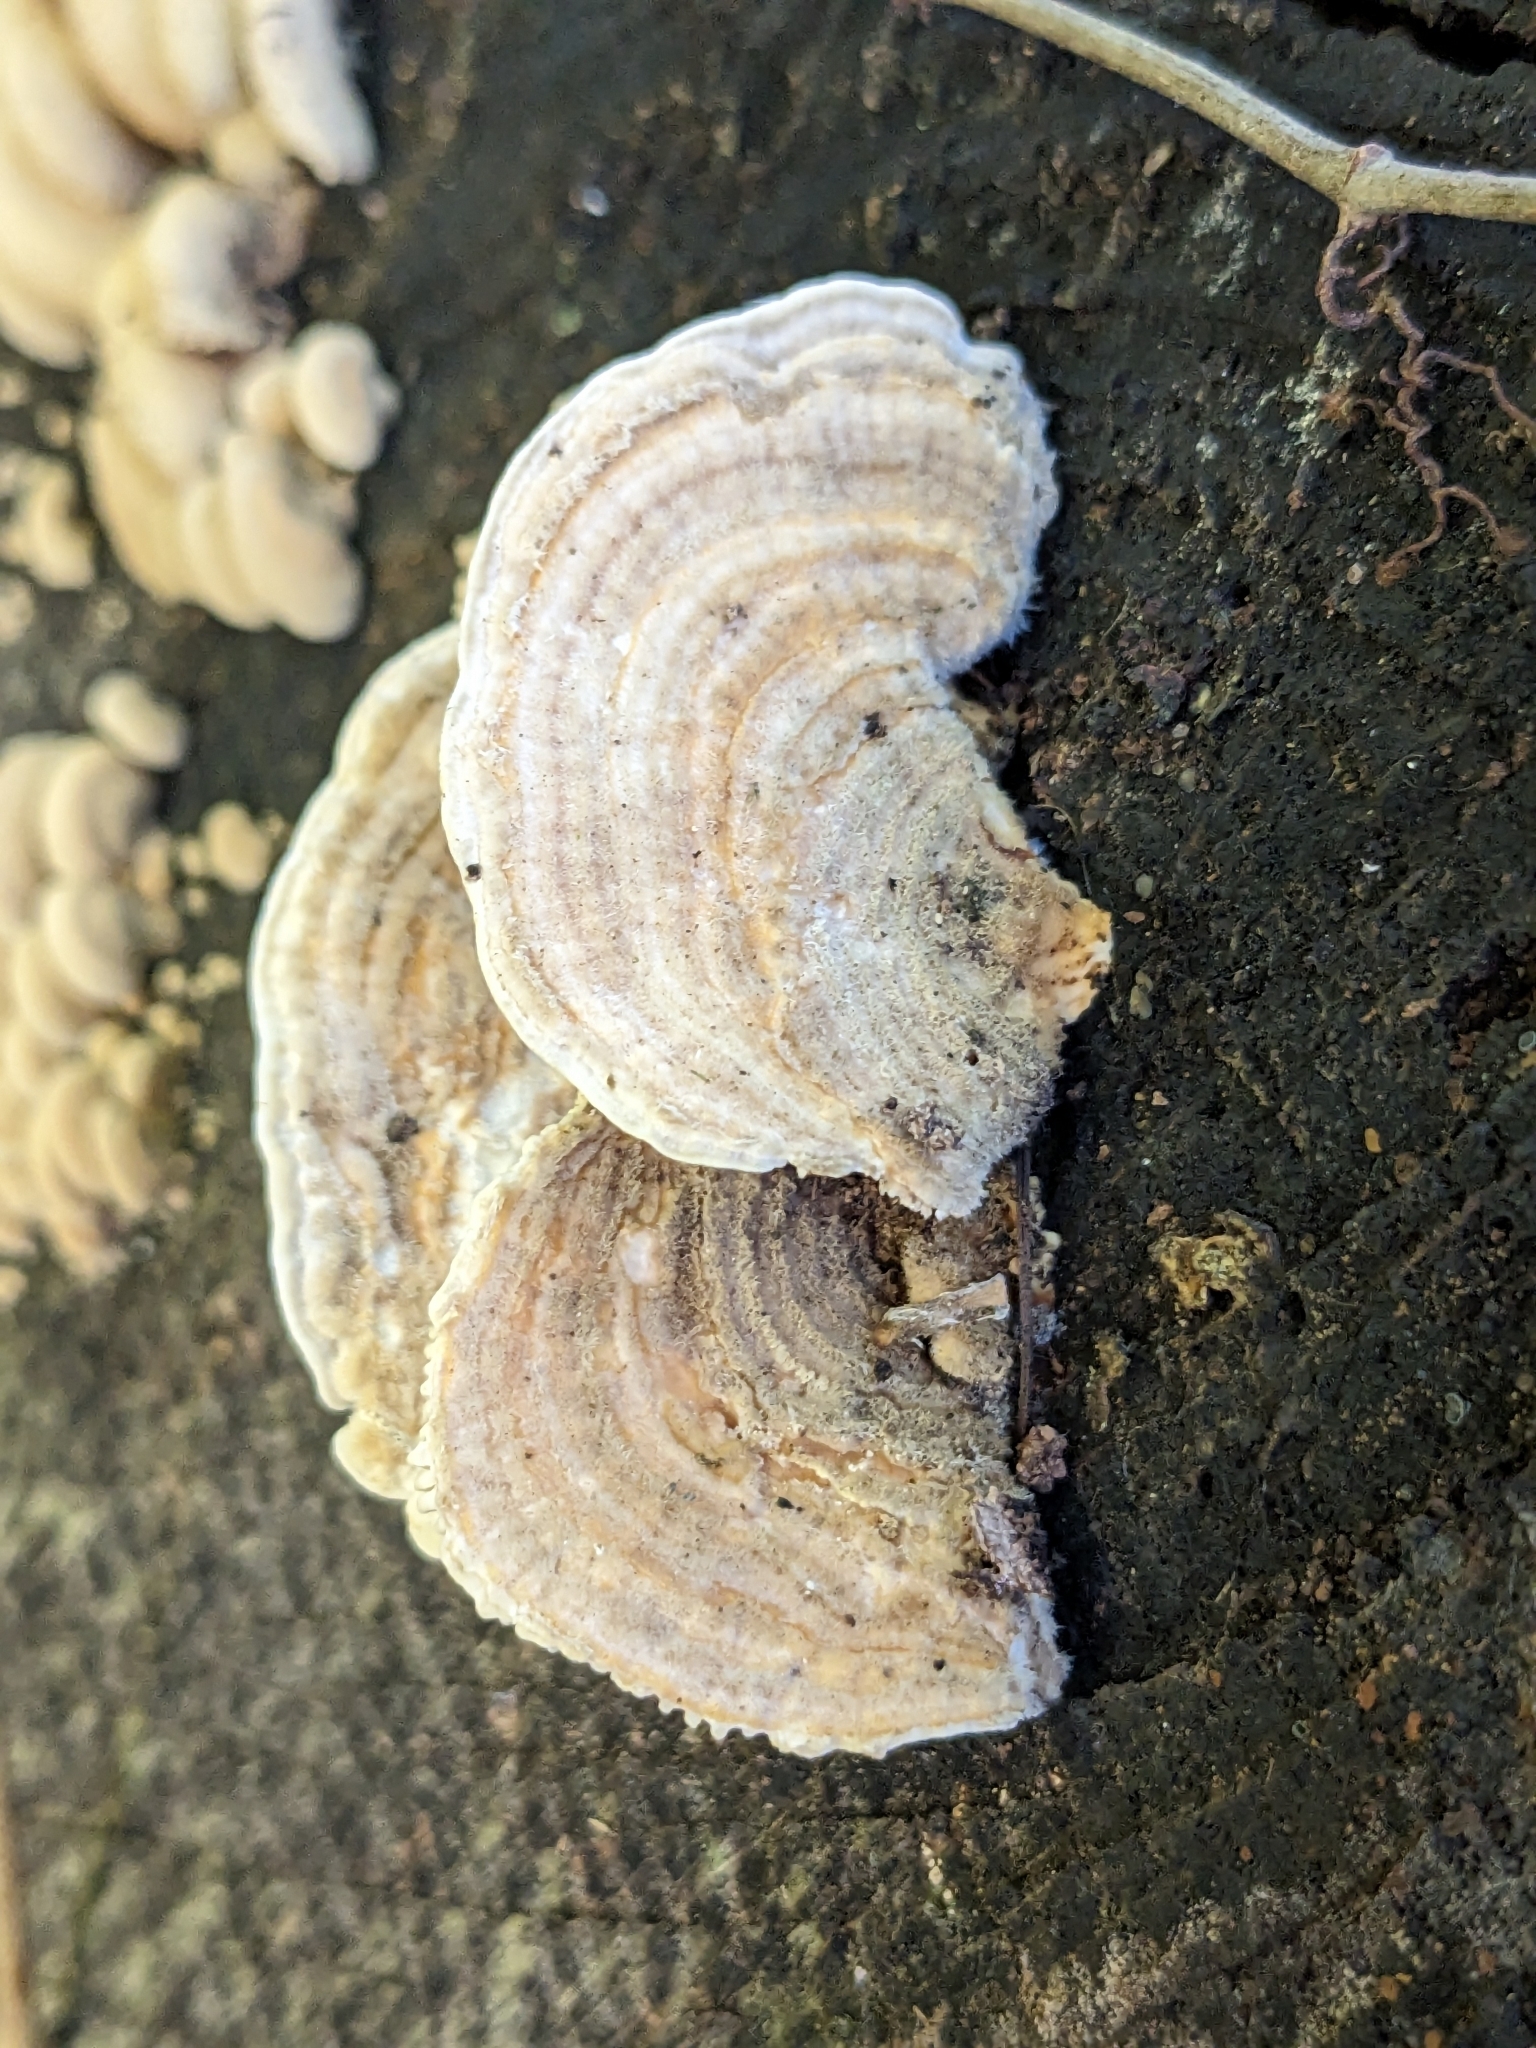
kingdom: Fungi
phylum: Basidiomycota
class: Agaricomycetes
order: Polyporales
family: Polyporaceae
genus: Lenzites
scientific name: Lenzites betulinus
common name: Birch mazegill
